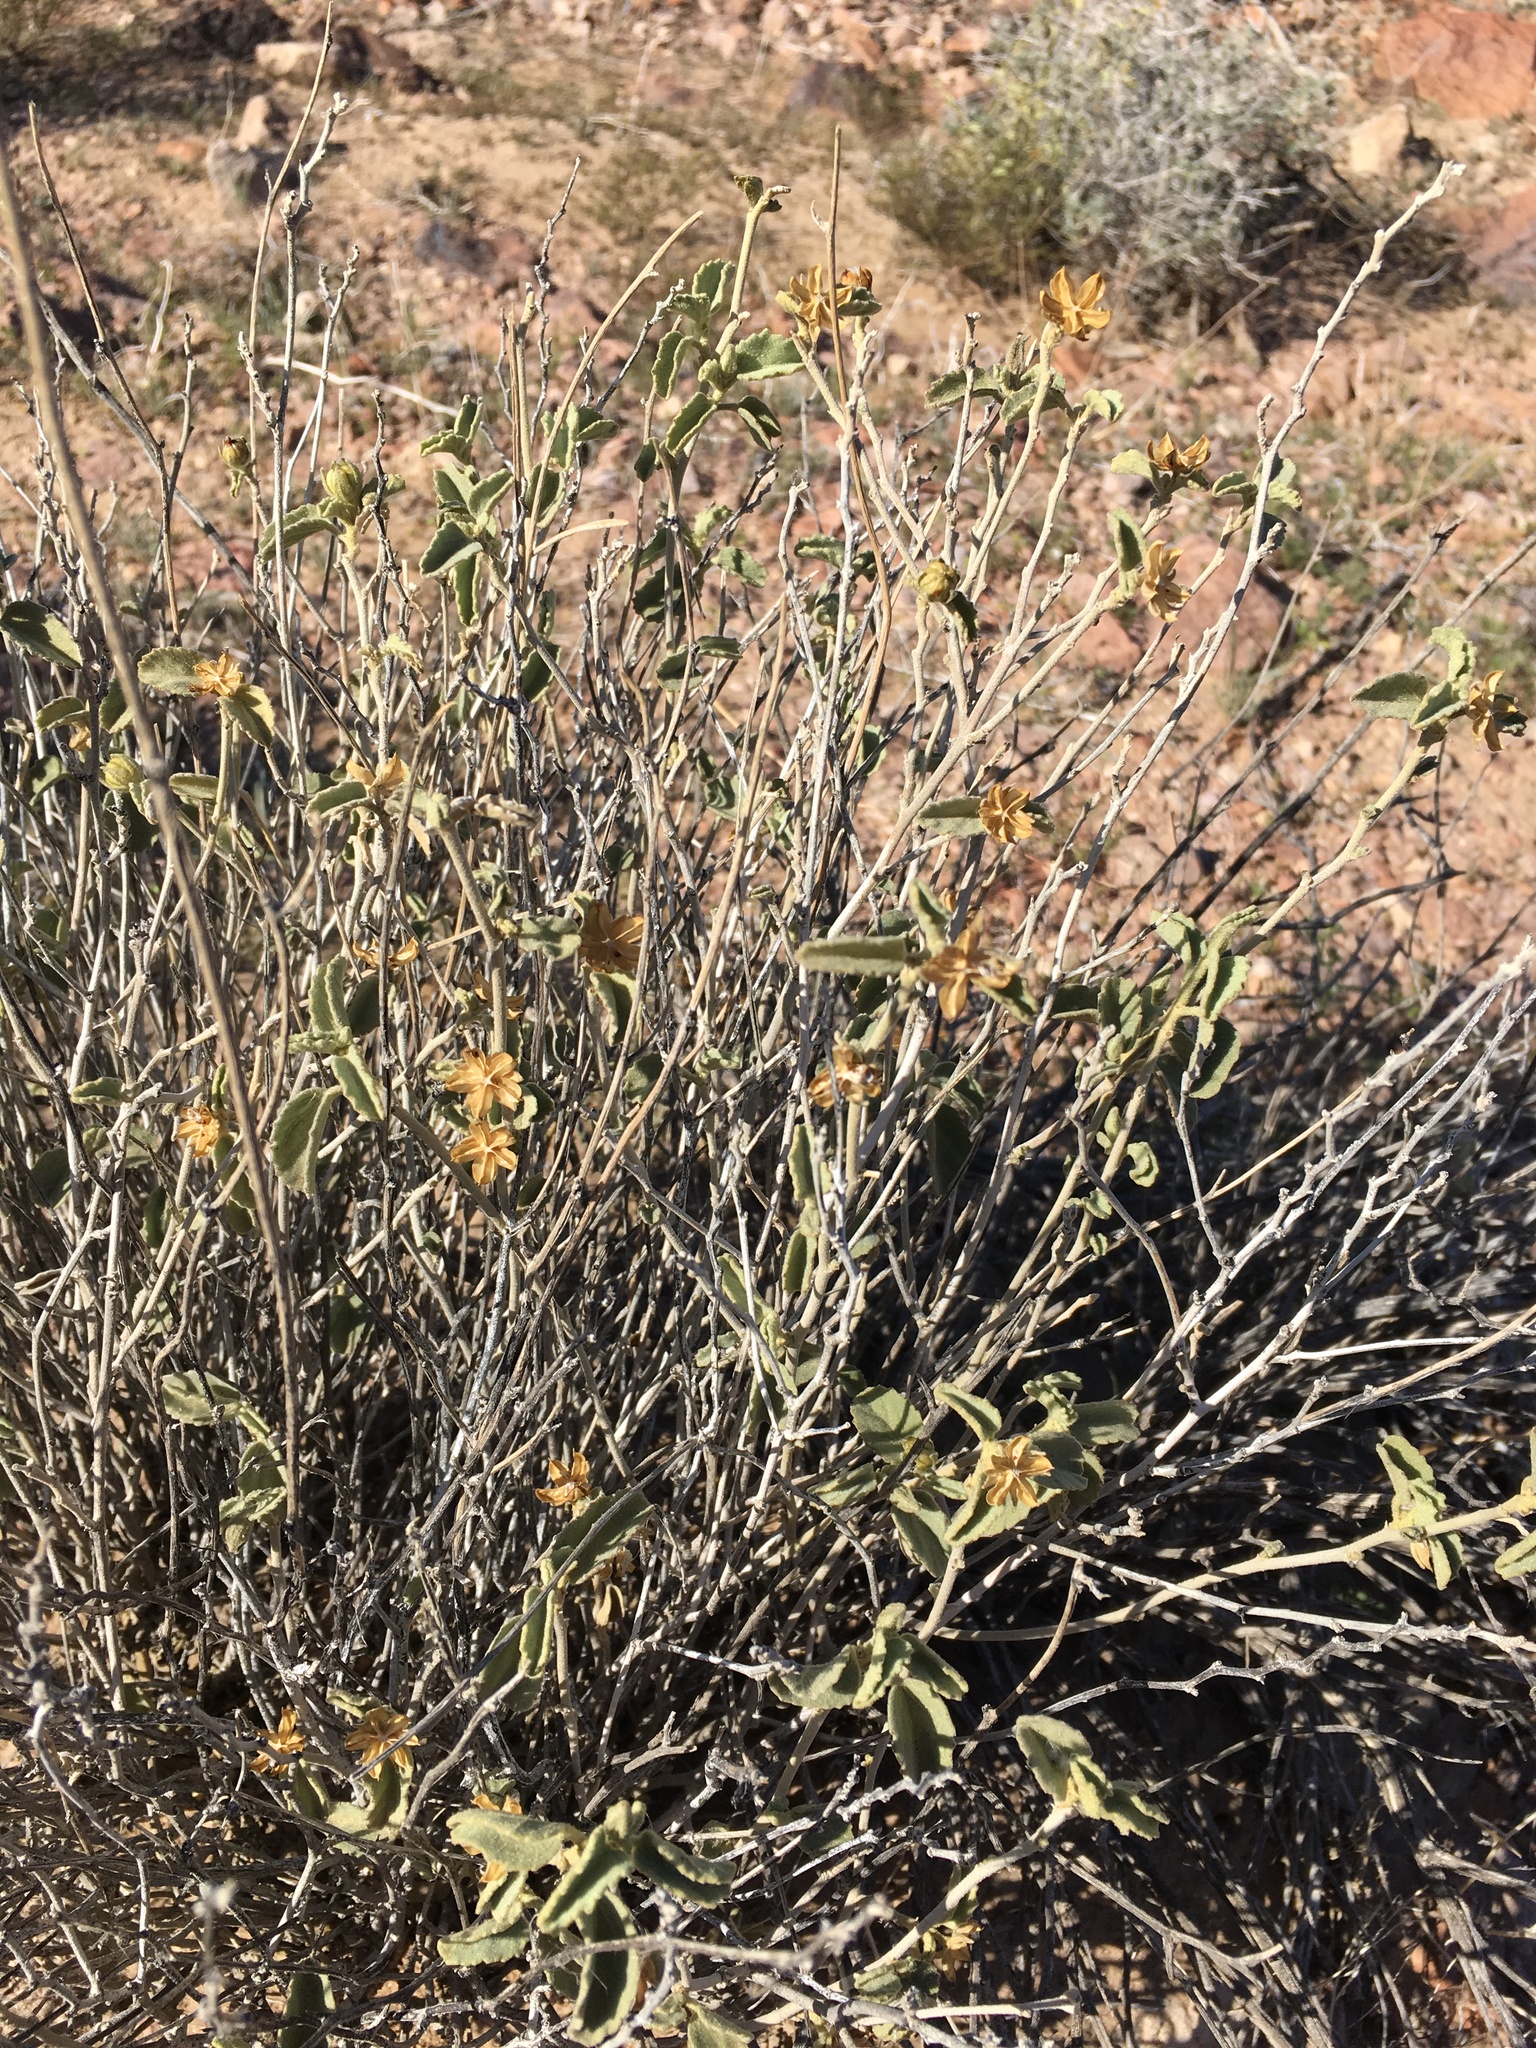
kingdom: Plantae
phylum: Tracheophyta
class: Magnoliopsida
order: Malvales
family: Malvaceae
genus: Hibiscus
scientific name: Hibiscus denudatus
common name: Paleface
